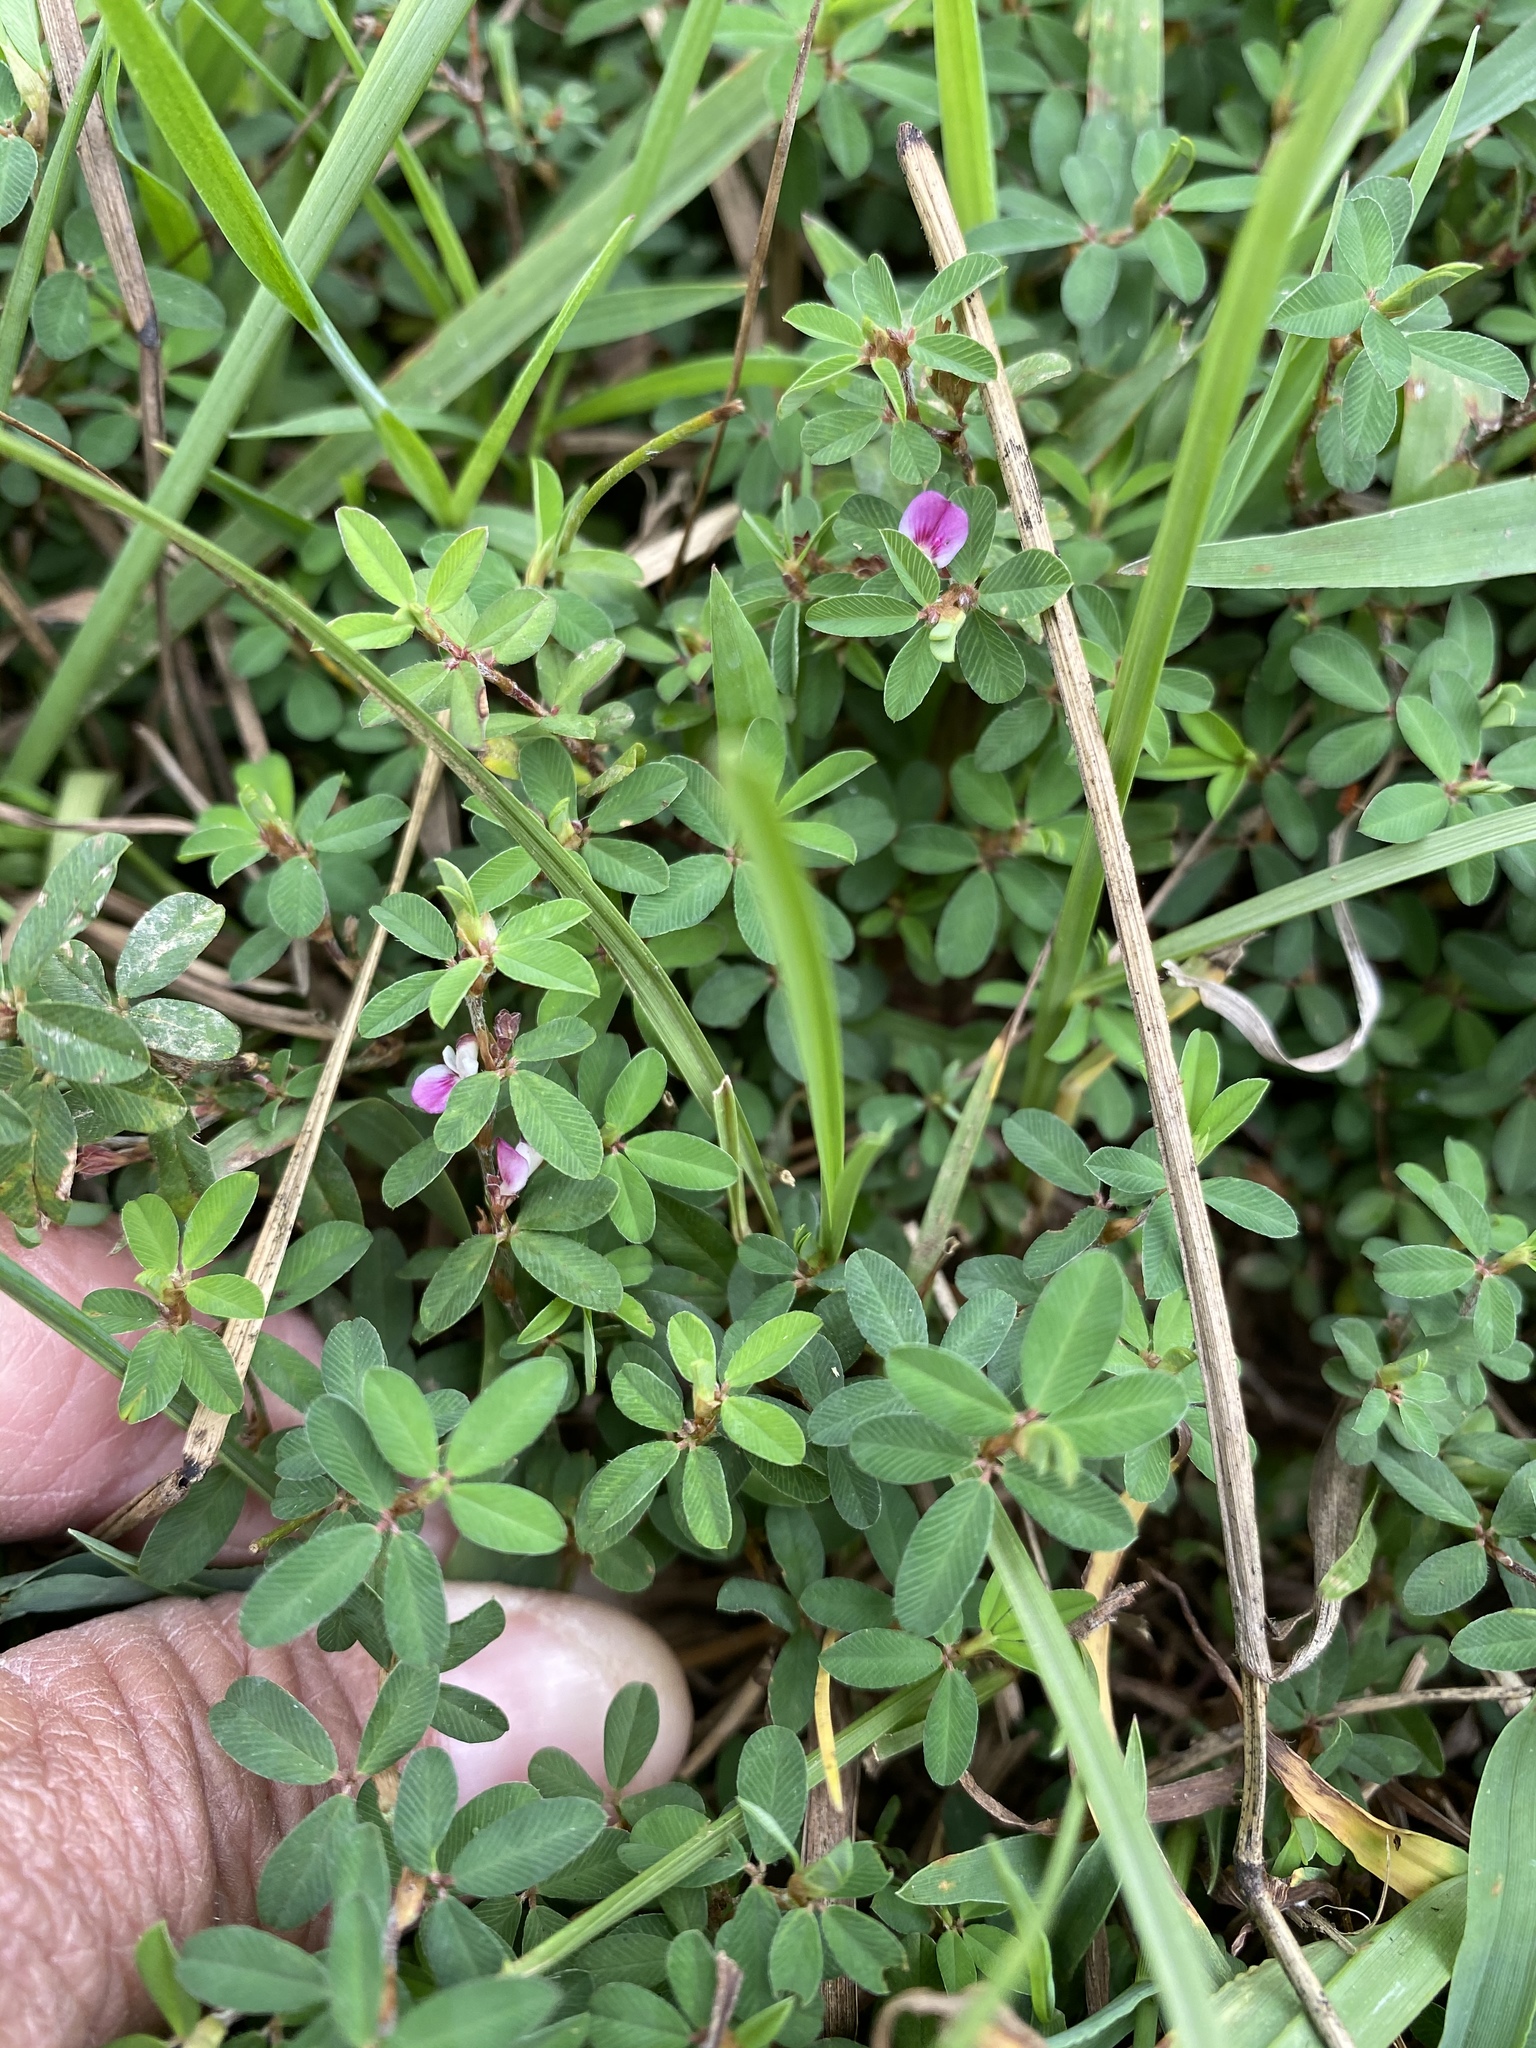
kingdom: Plantae
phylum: Tracheophyta
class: Magnoliopsida
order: Fabales
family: Fabaceae
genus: Kummerowia
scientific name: Kummerowia striata
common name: Japanese clover
